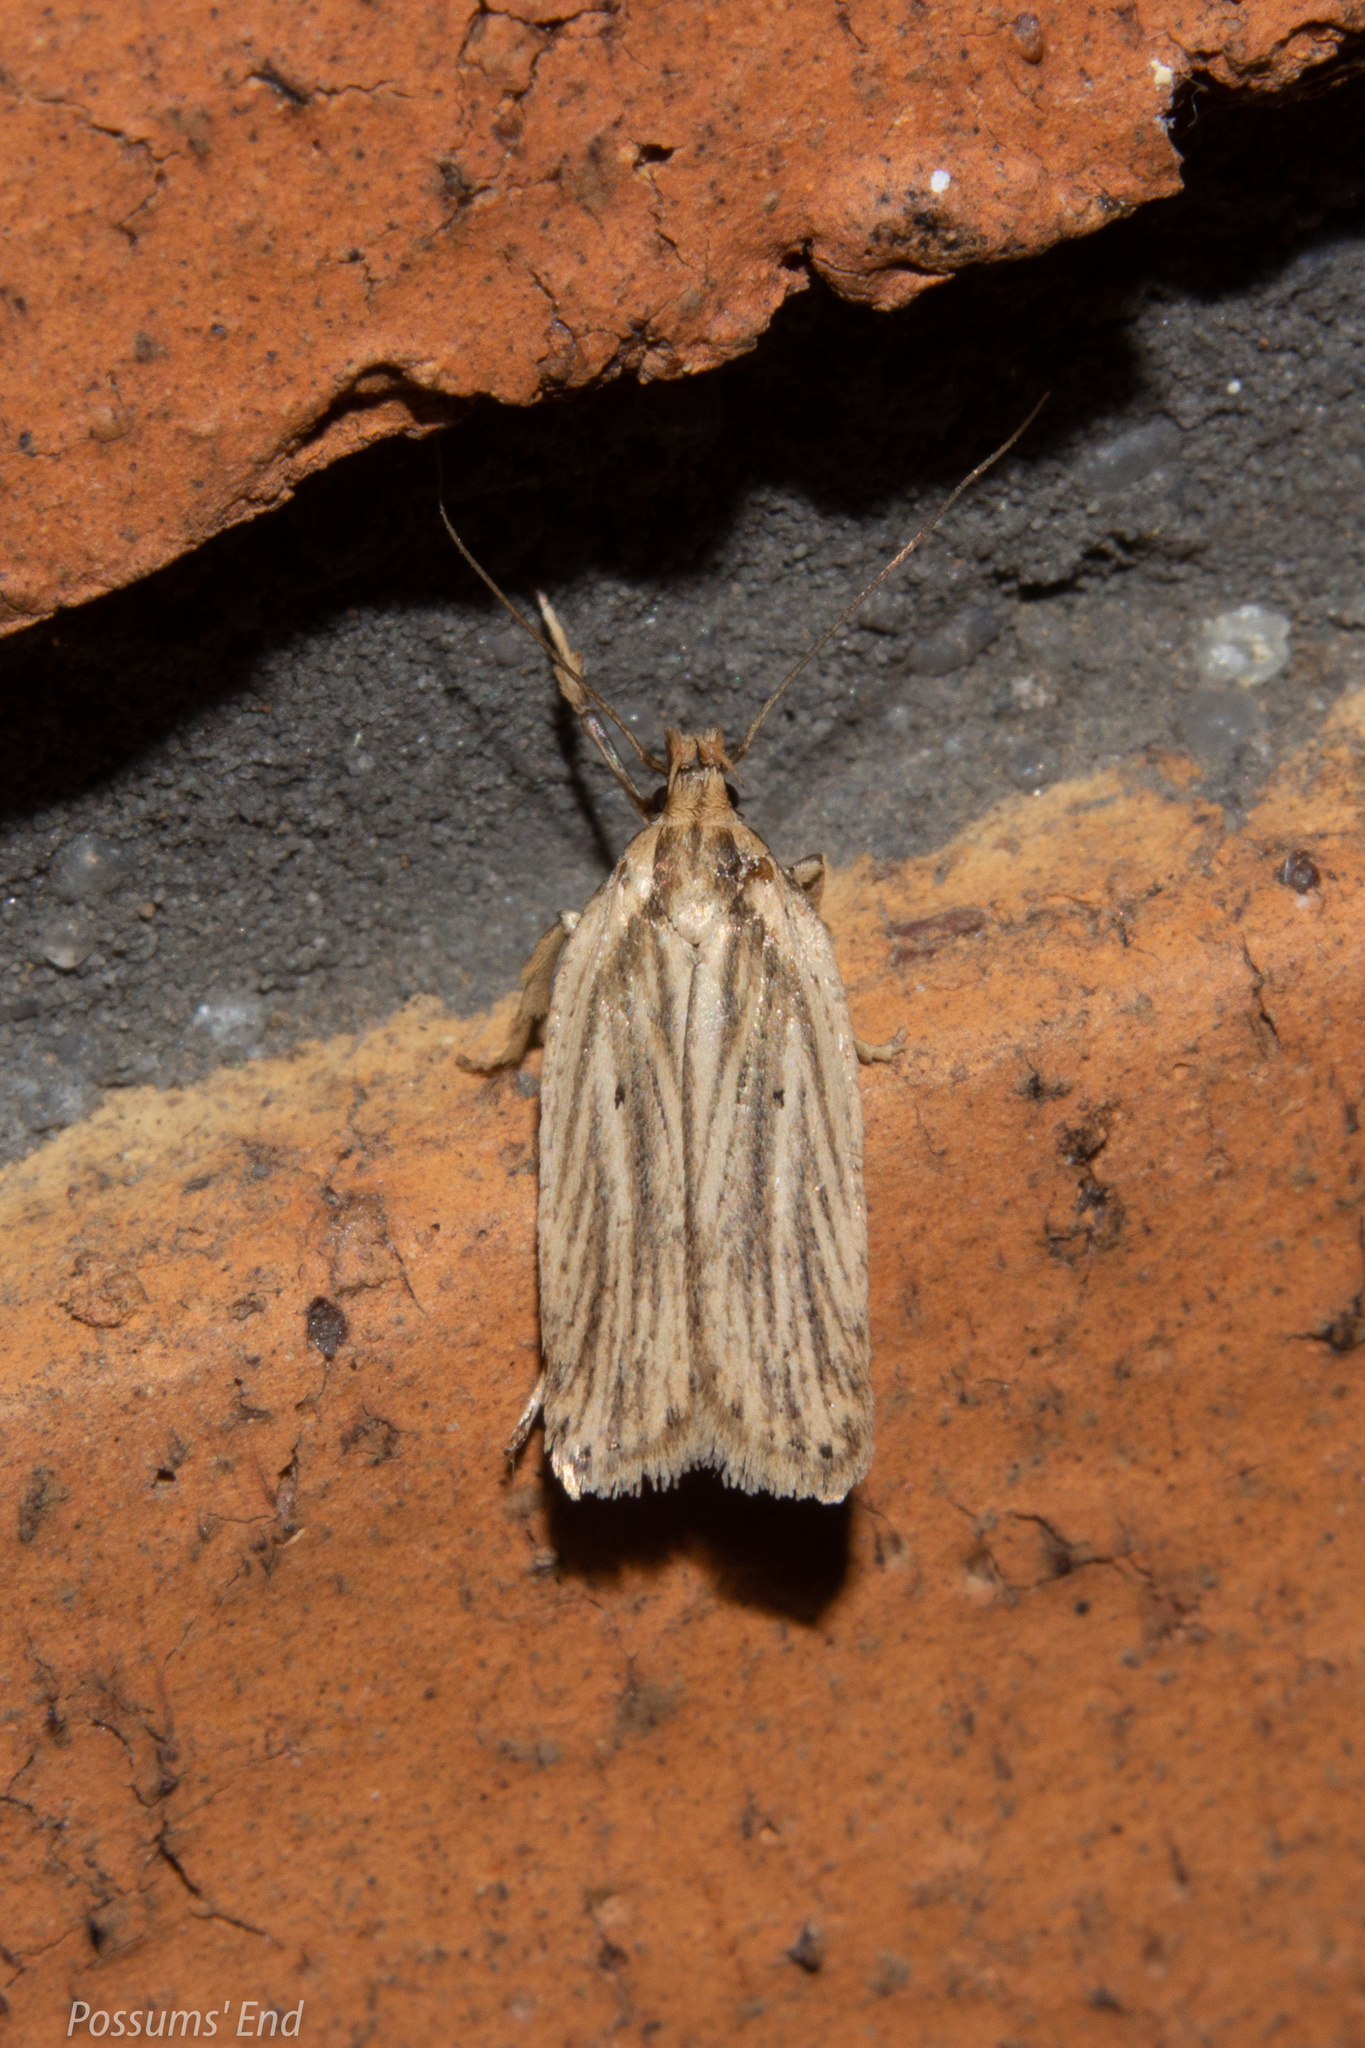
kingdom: Animalia
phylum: Arthropoda
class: Insecta
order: Lepidoptera
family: Depressariidae
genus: Agonopterix
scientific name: Agonopterix
